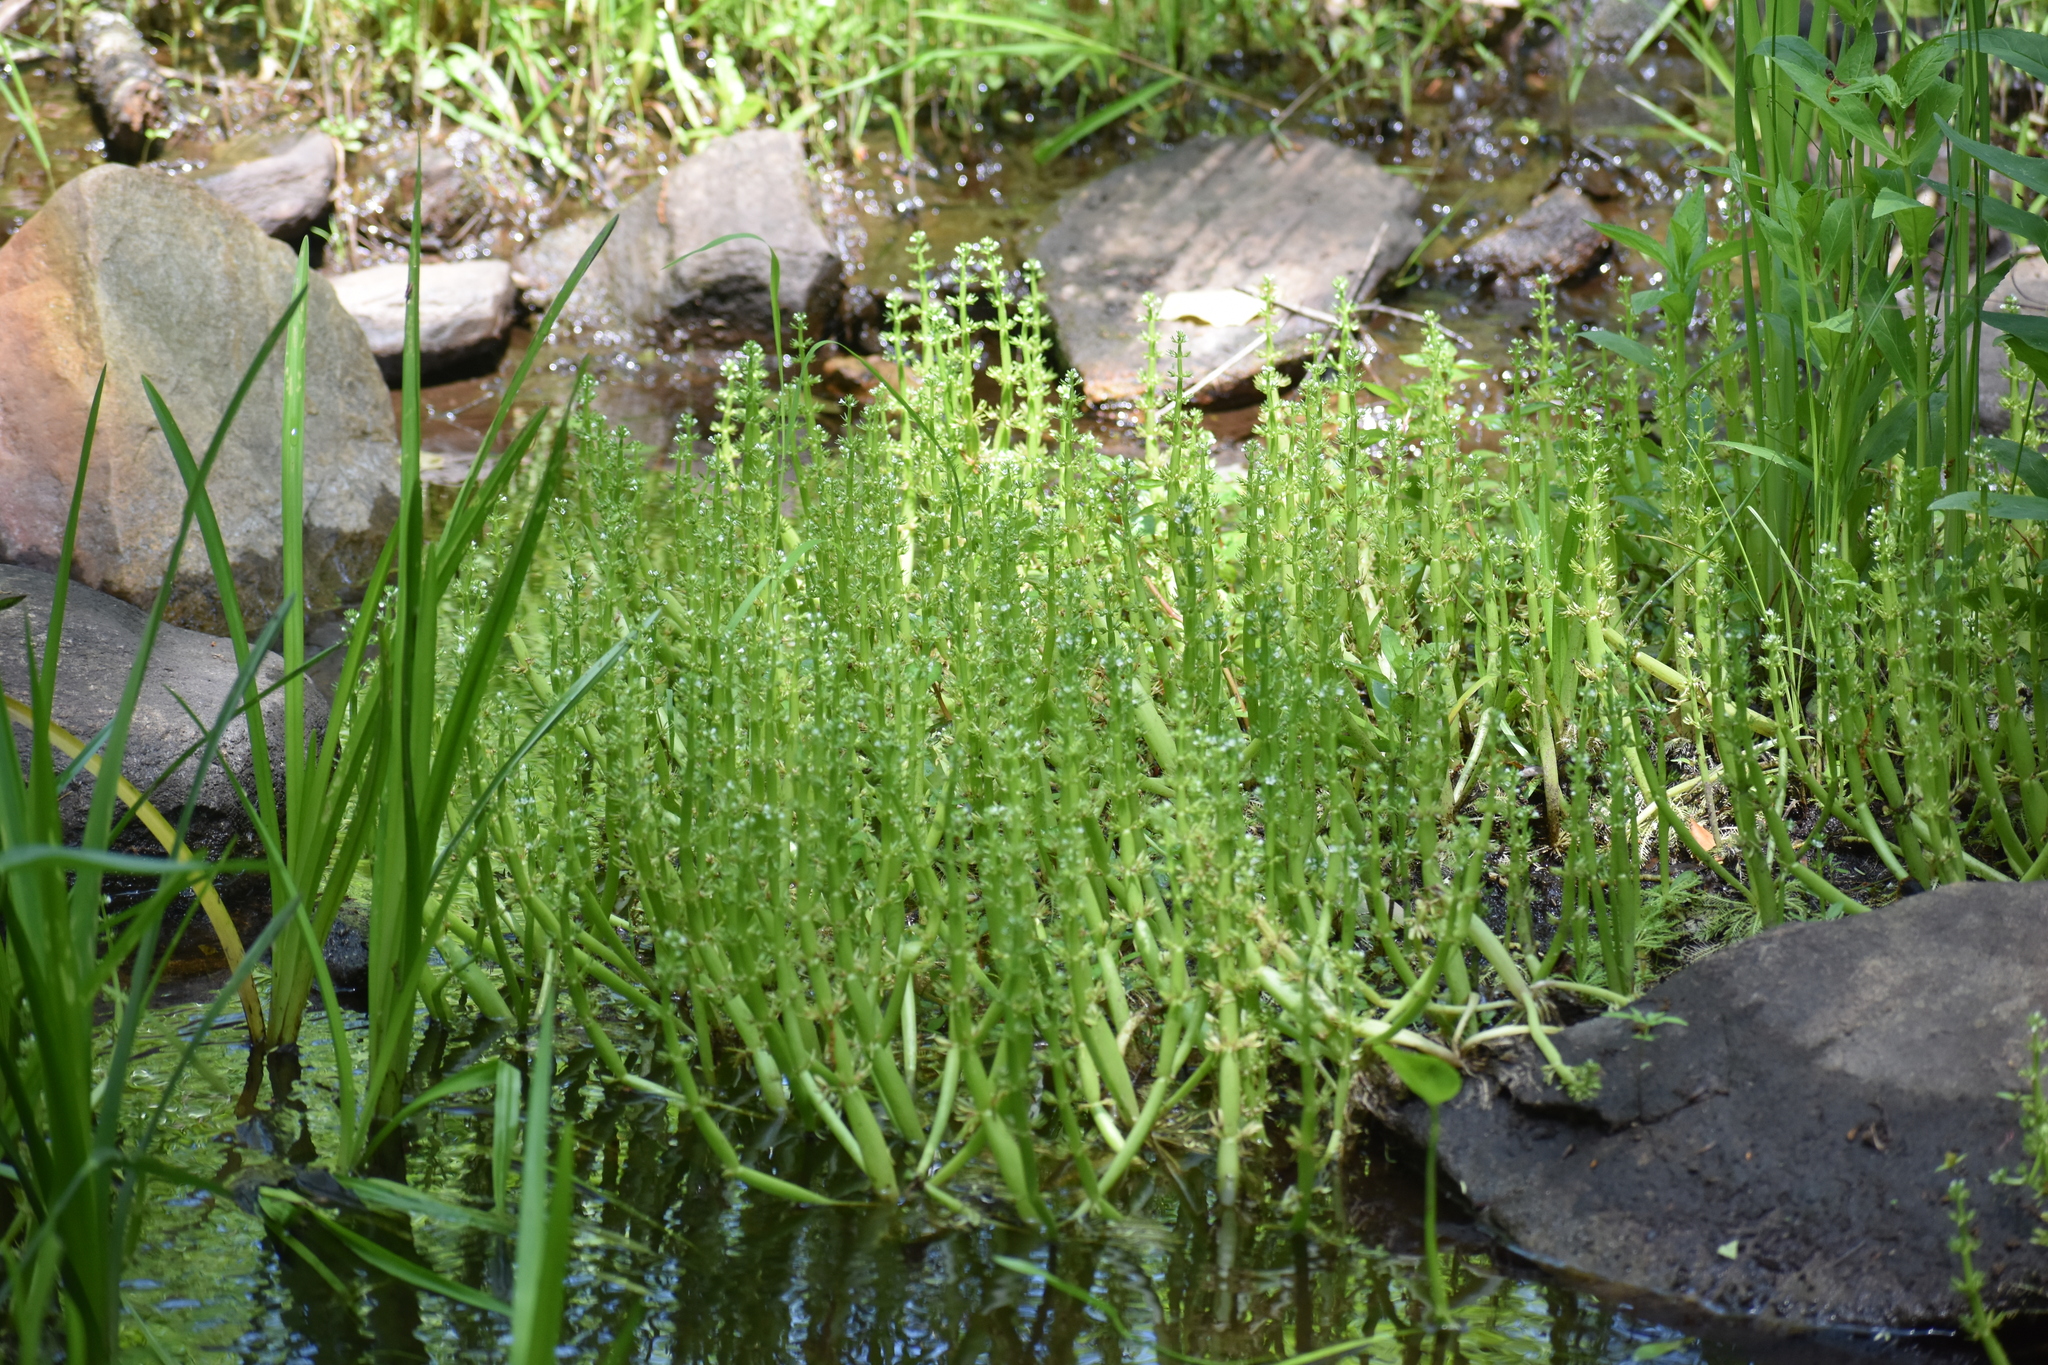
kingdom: Plantae
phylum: Tracheophyta
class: Magnoliopsida
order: Ericales
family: Primulaceae
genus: Hottonia
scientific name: Hottonia inflata
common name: American featherfoil
